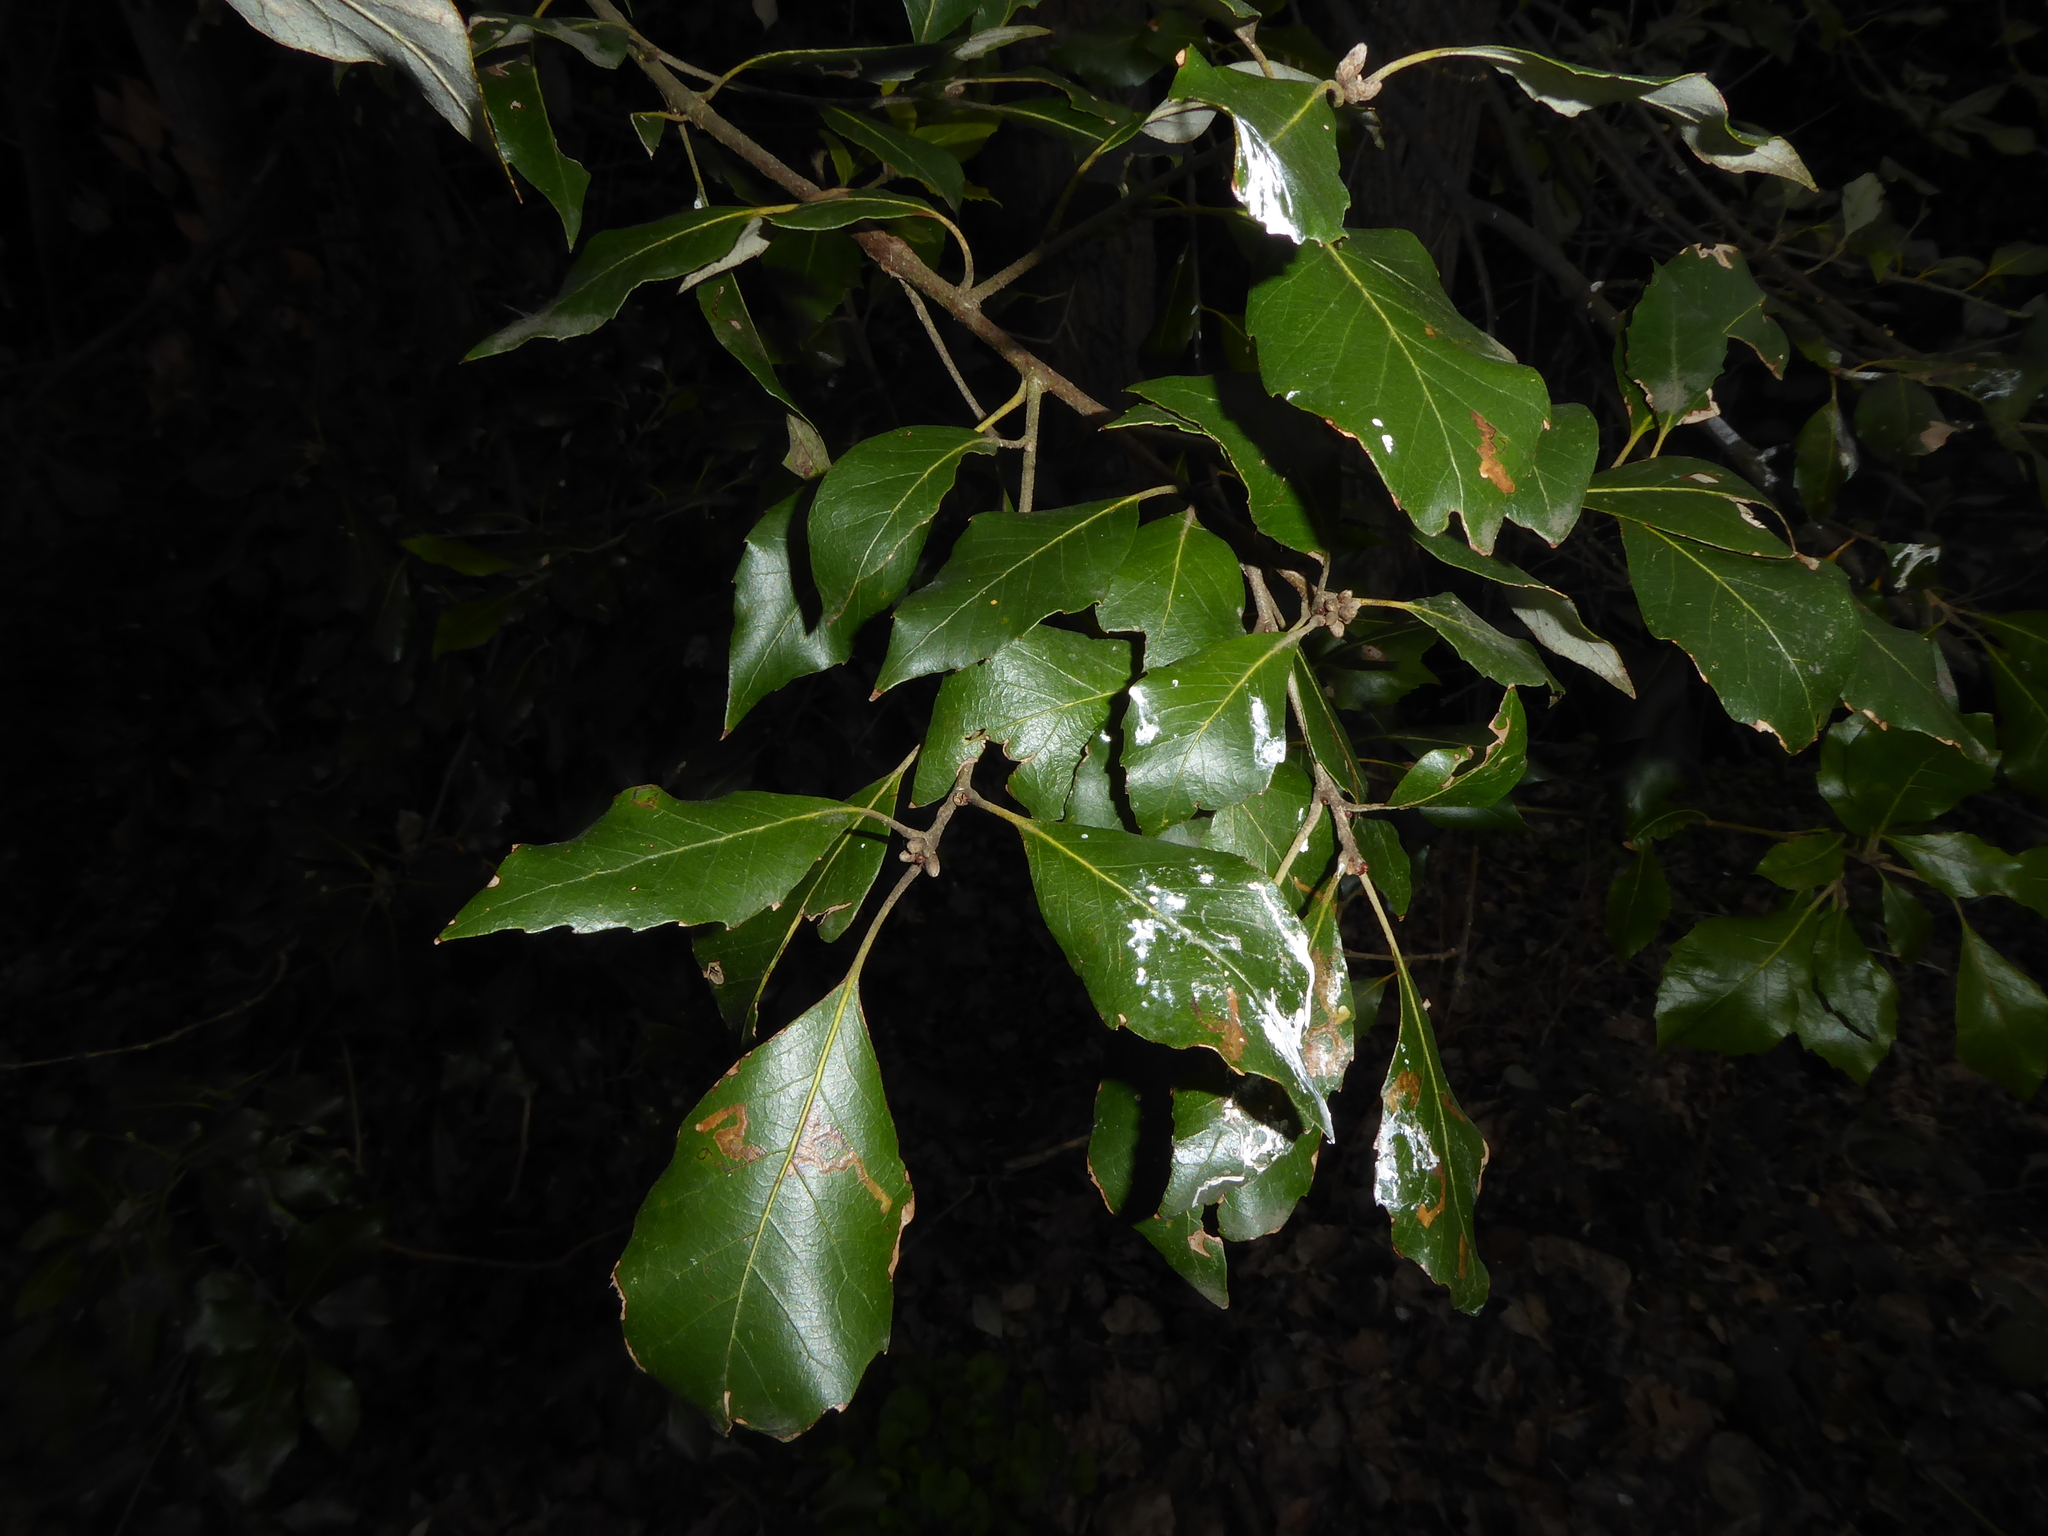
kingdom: Plantae
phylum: Tracheophyta
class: Magnoliopsida
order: Fagales
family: Fagaceae
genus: Quercus
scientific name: Quercus ilex
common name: Evergreen oak
